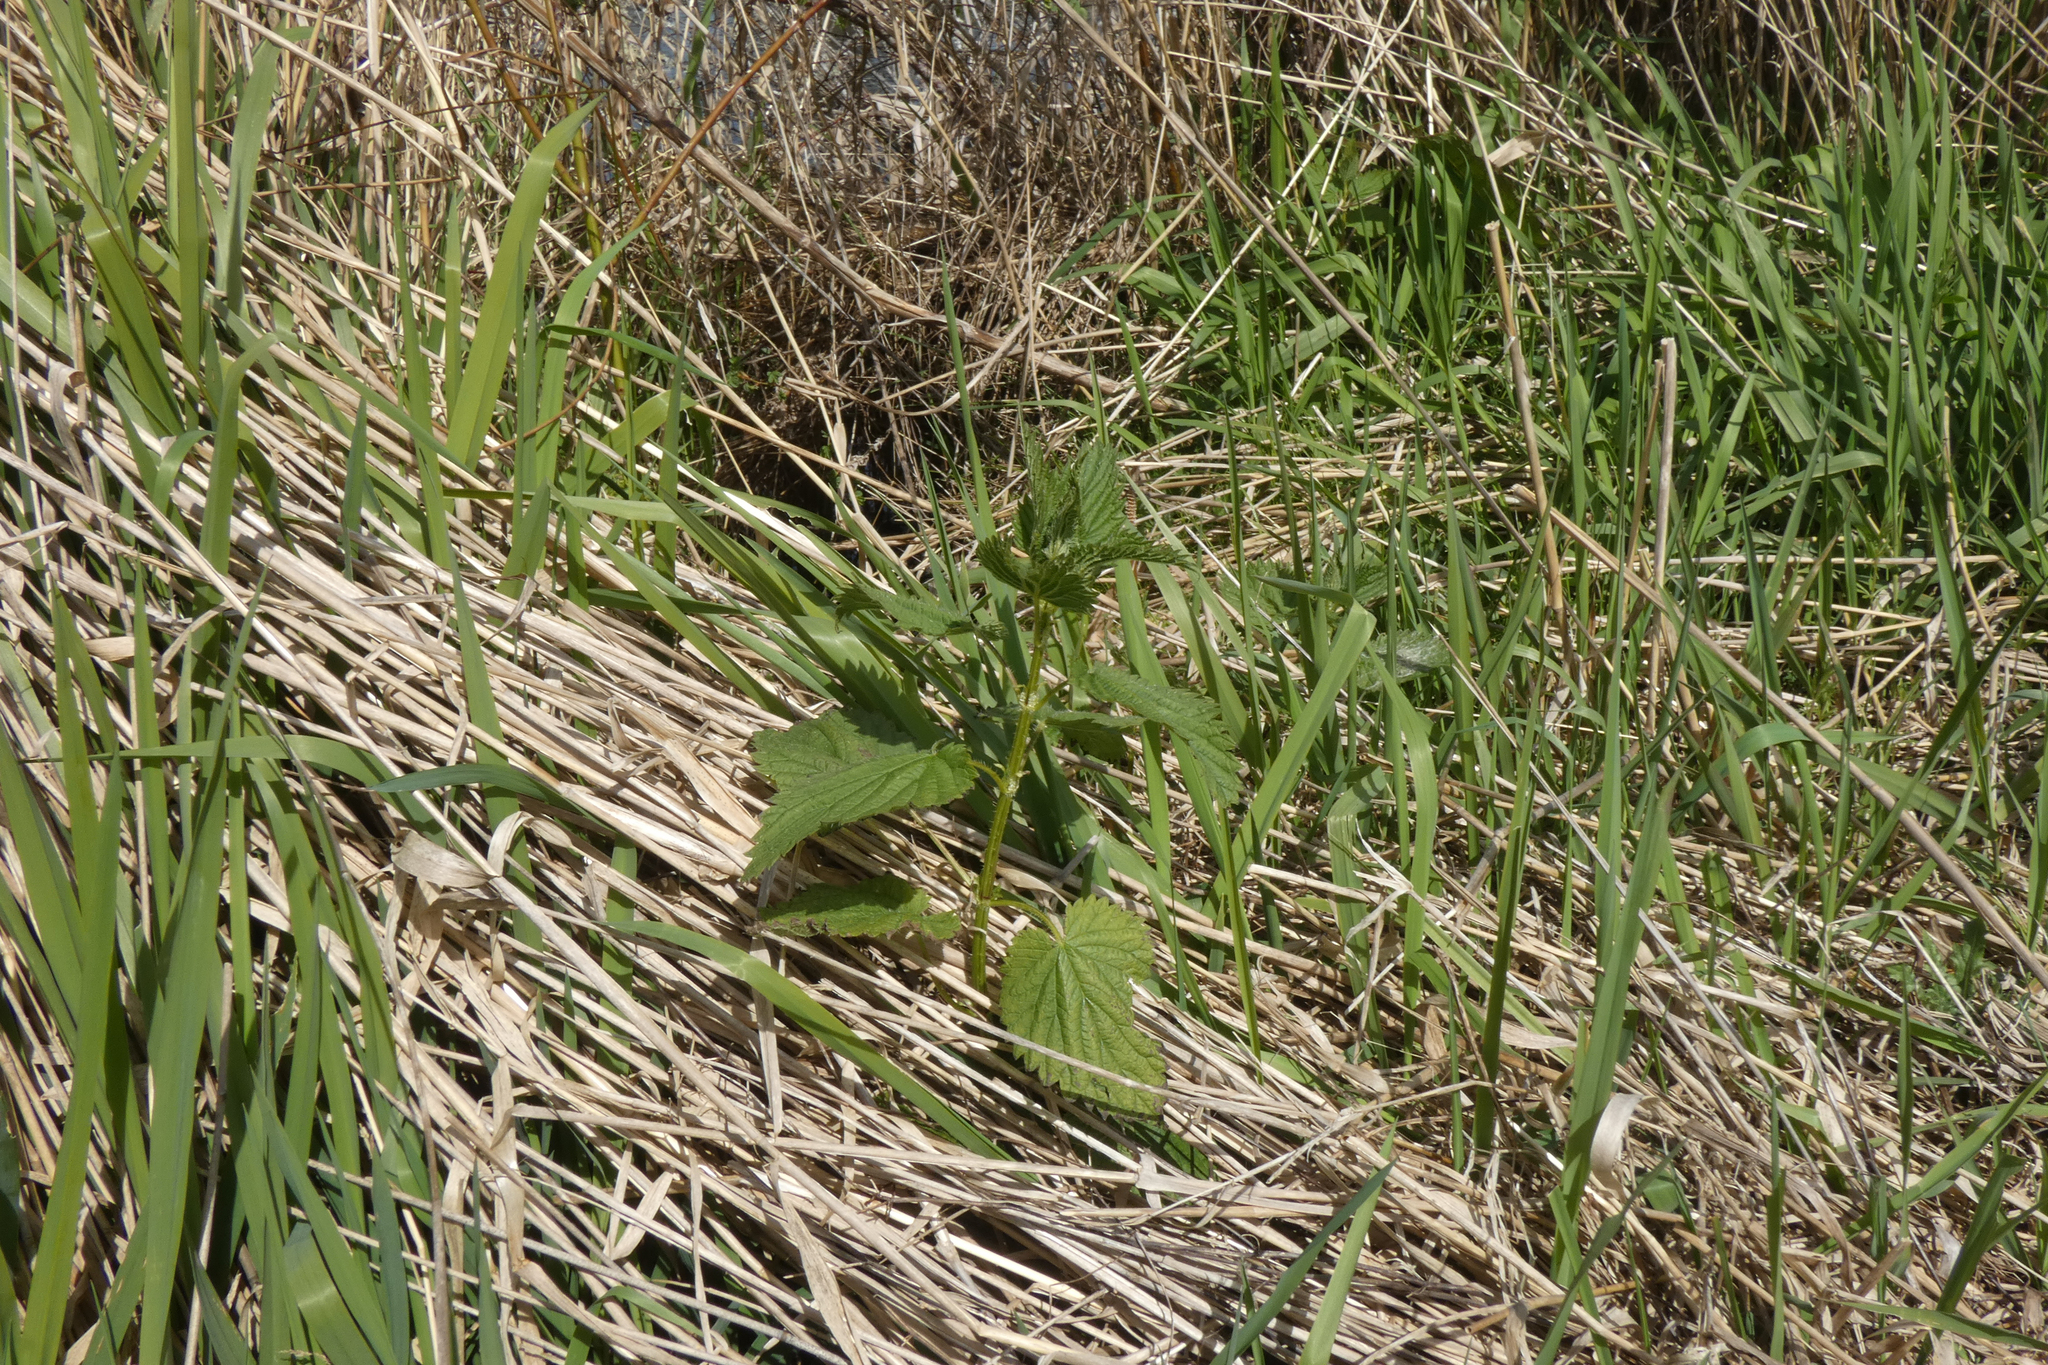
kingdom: Plantae
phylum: Tracheophyta
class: Magnoliopsida
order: Rosales
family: Urticaceae
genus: Urtica
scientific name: Urtica gracilis
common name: Slender stinging nettle
